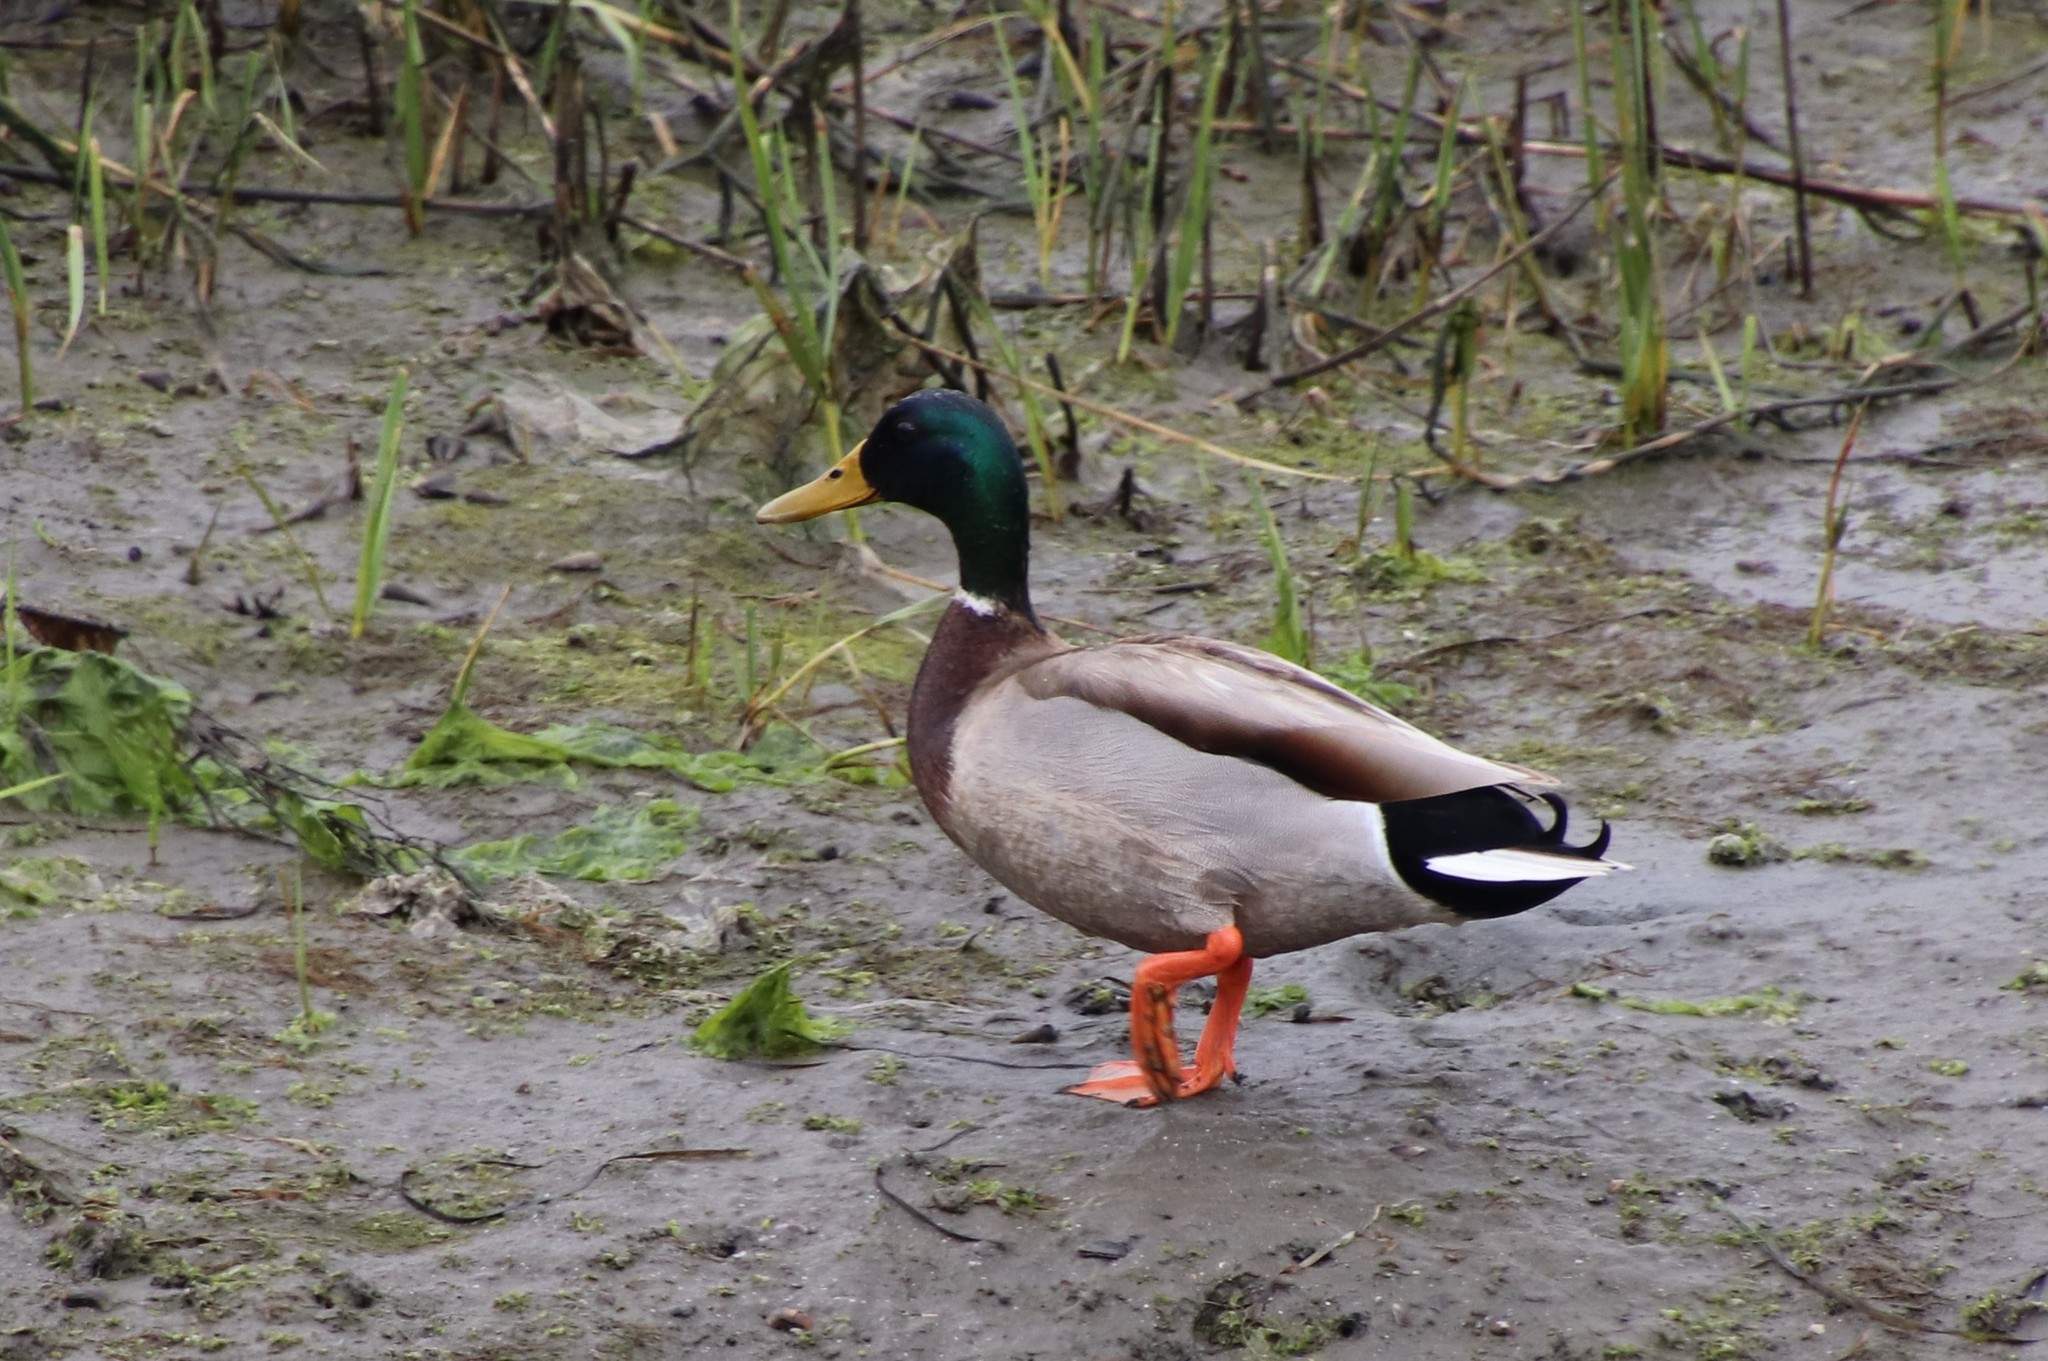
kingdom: Animalia
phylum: Chordata
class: Aves
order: Anseriformes
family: Anatidae
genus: Anas
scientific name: Anas platyrhynchos
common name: Mallard
